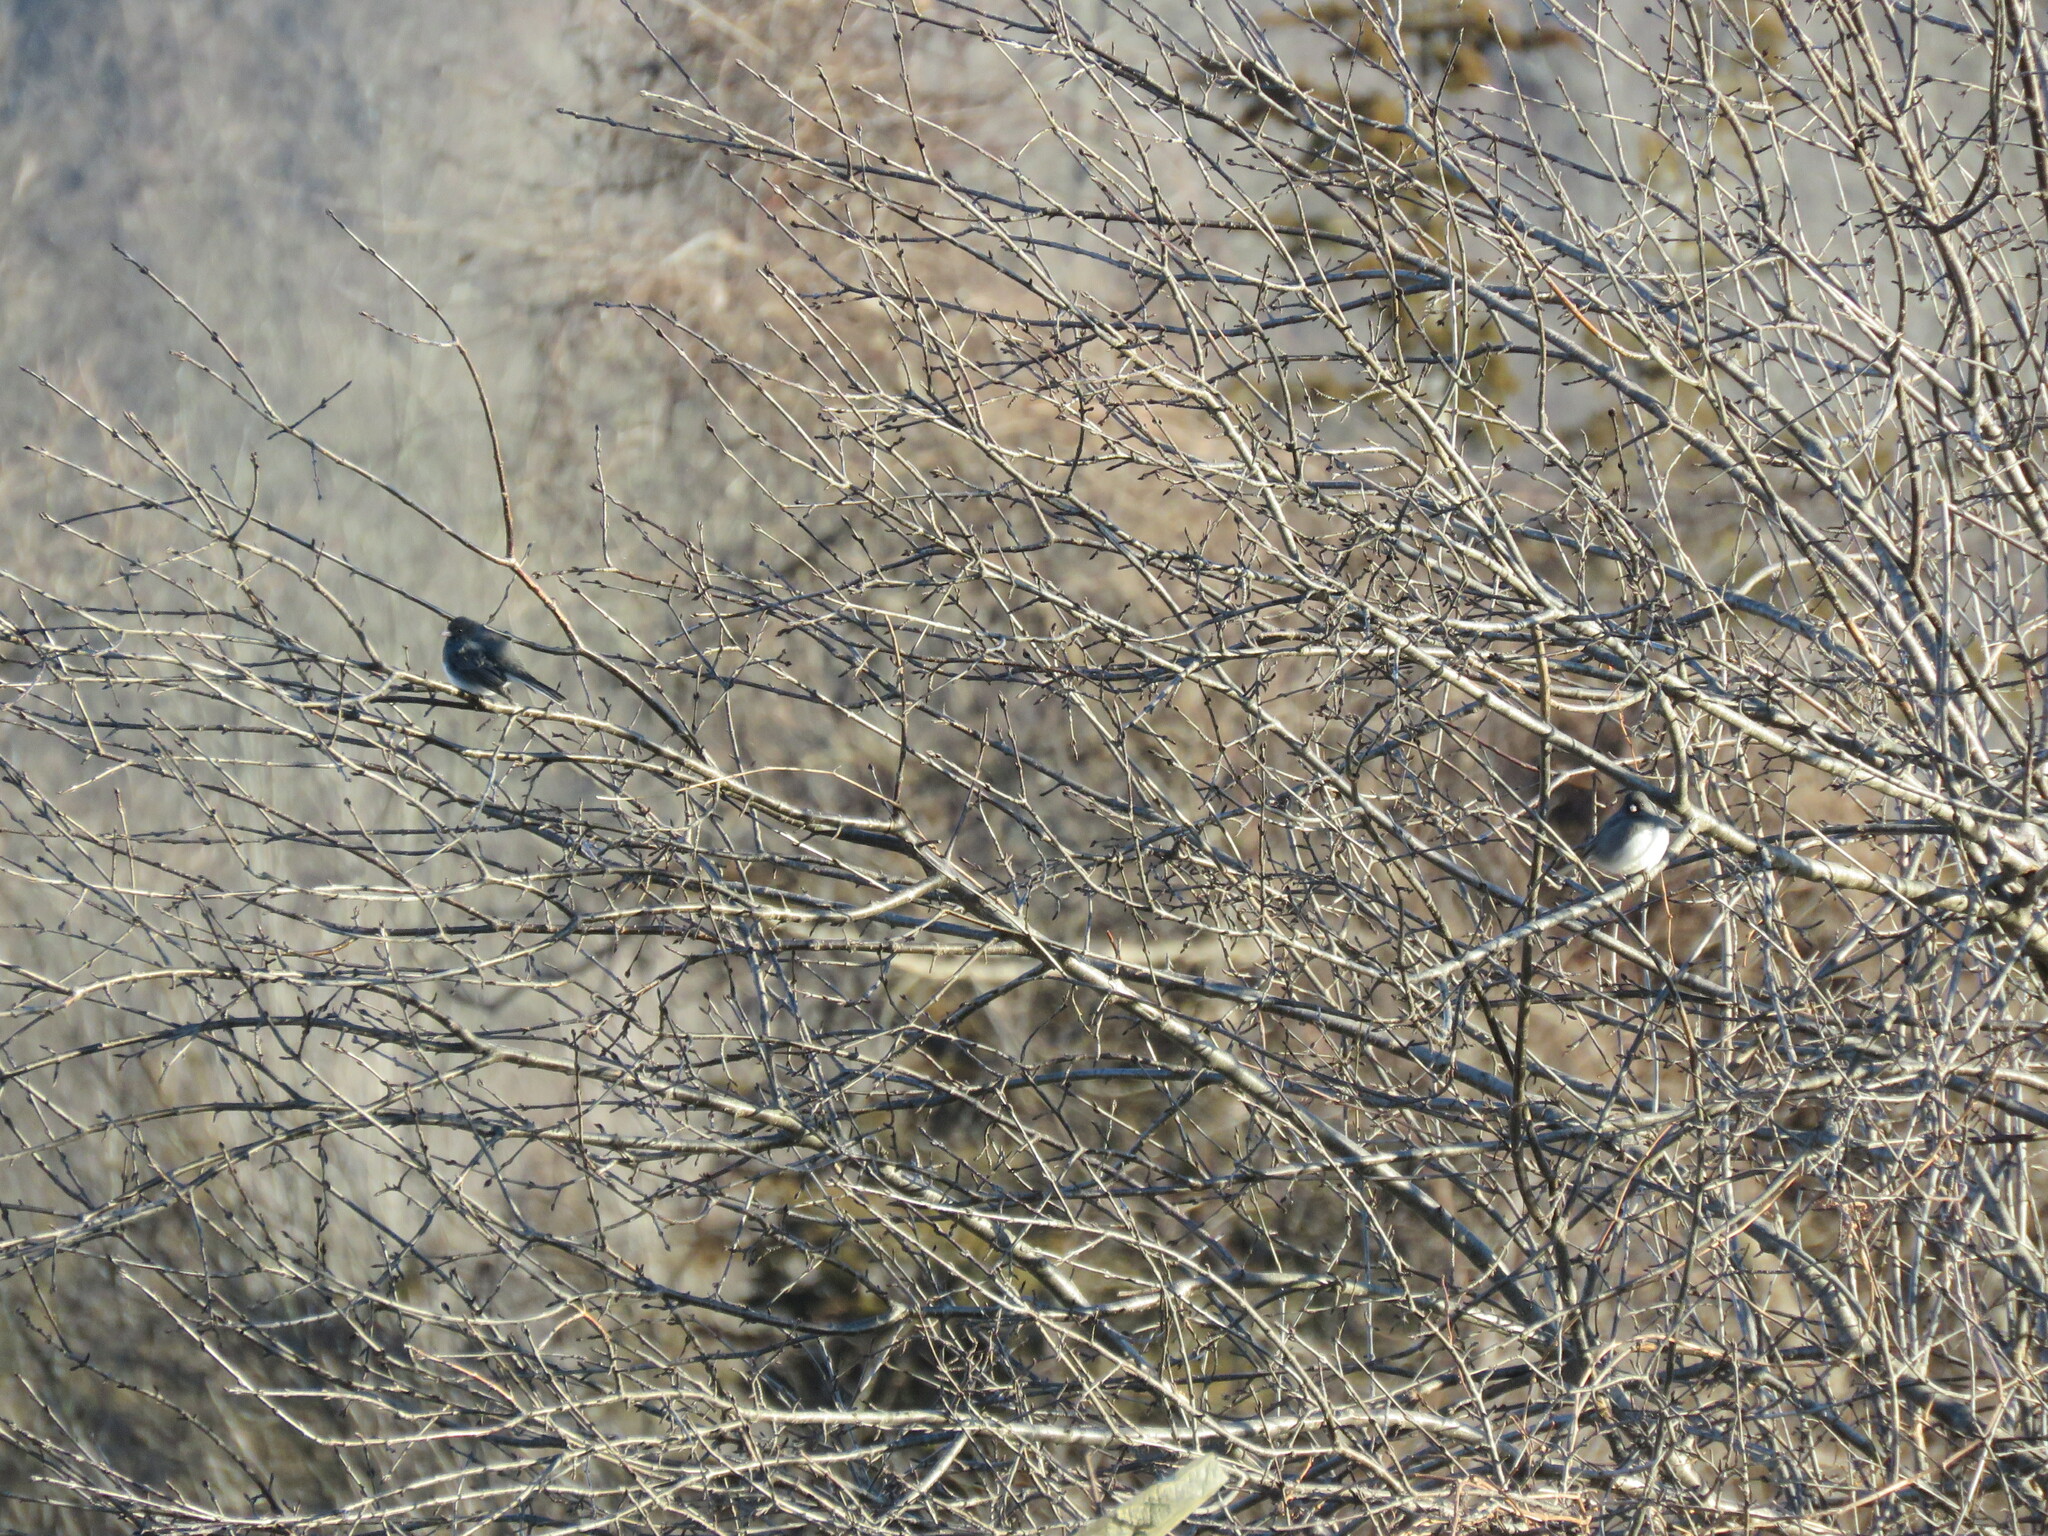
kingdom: Animalia
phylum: Chordata
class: Aves
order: Passeriformes
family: Passerellidae
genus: Junco
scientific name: Junco hyemalis
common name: Dark-eyed junco
